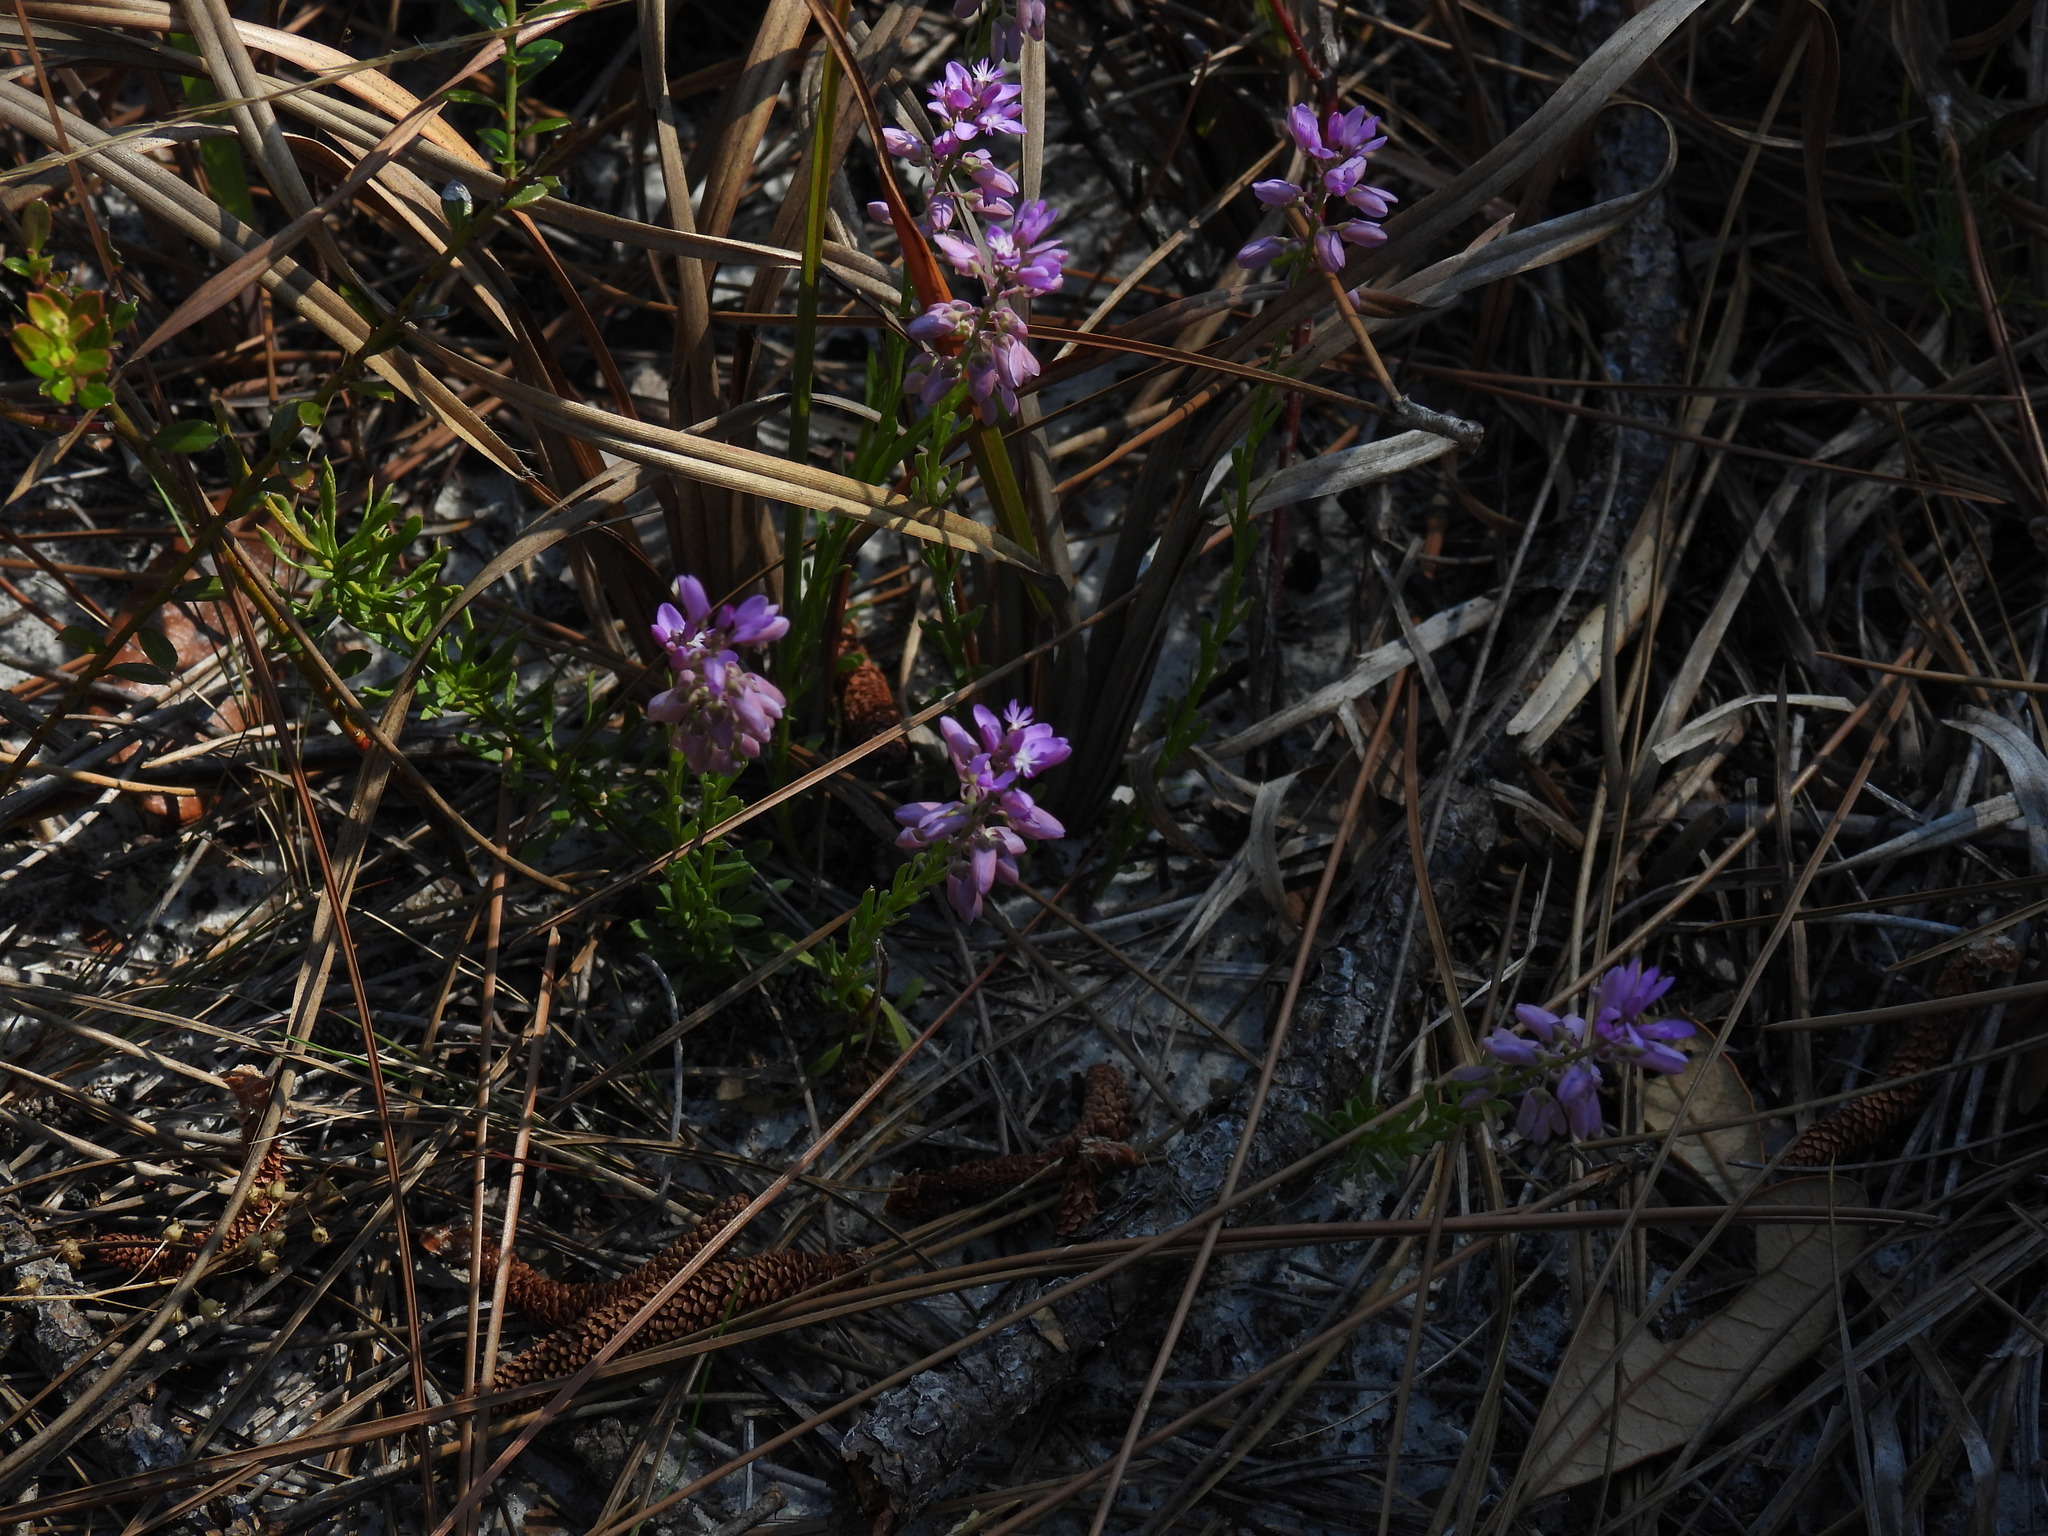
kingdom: Plantae
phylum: Tracheophyta
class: Magnoliopsida
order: Fabales
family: Polygalaceae
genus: Polygala
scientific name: Polygala lewtonii
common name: Lewton's polygala
